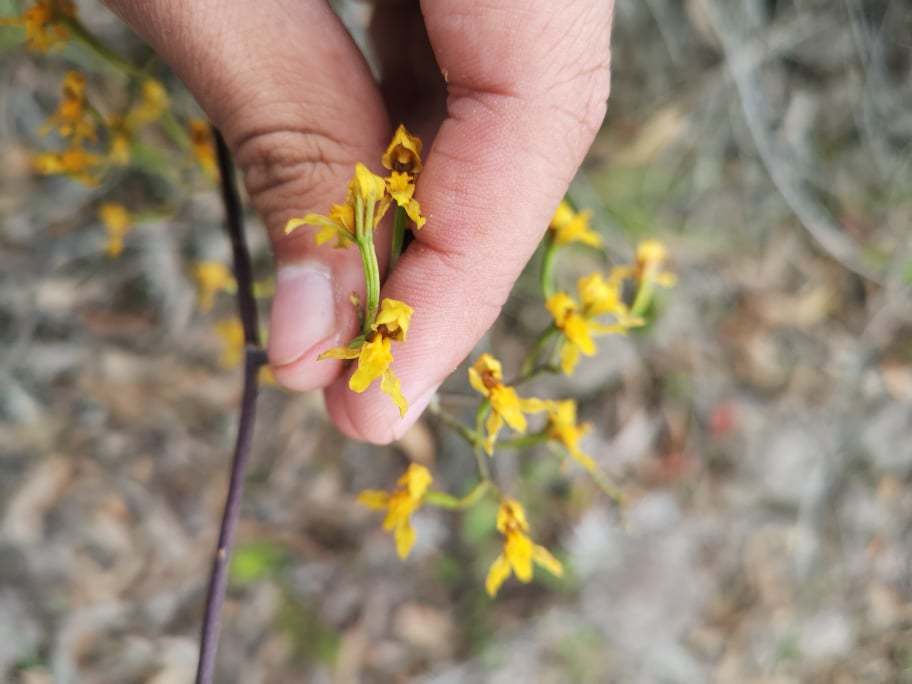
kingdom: Plantae
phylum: Tracheophyta
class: Liliopsida
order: Asparagales
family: Orchidaceae
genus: Cyrtochilum
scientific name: Cyrtochilum densiflorum
